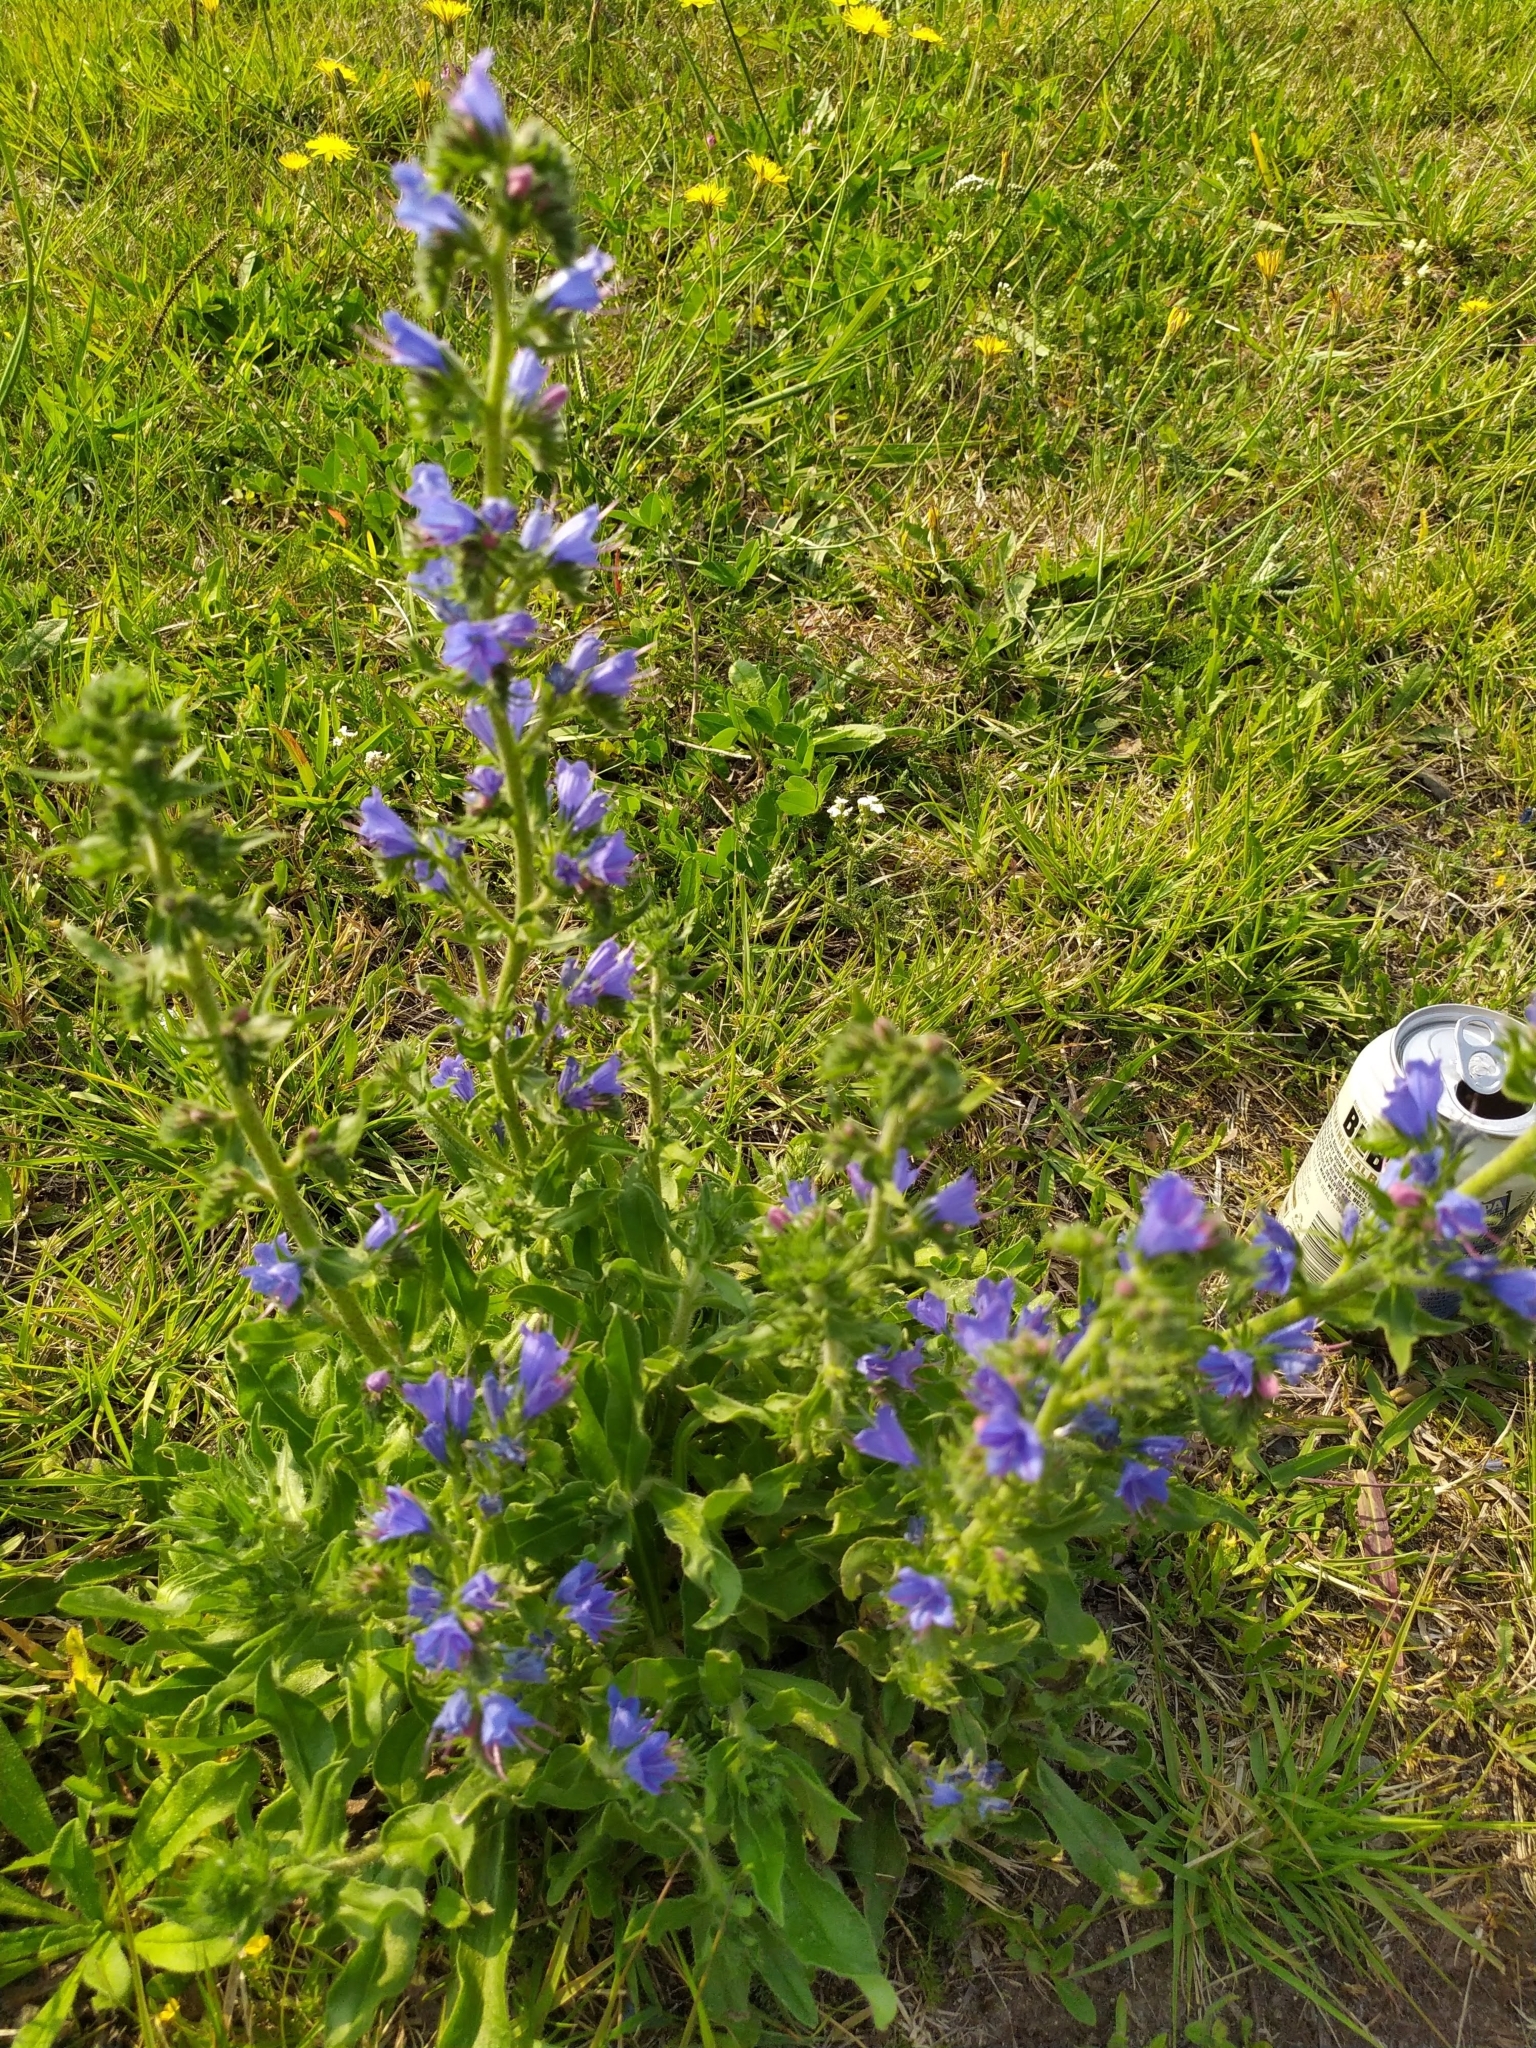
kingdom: Plantae
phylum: Tracheophyta
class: Magnoliopsida
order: Boraginales
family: Boraginaceae
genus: Echium
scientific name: Echium vulgare
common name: Common viper's bugloss
